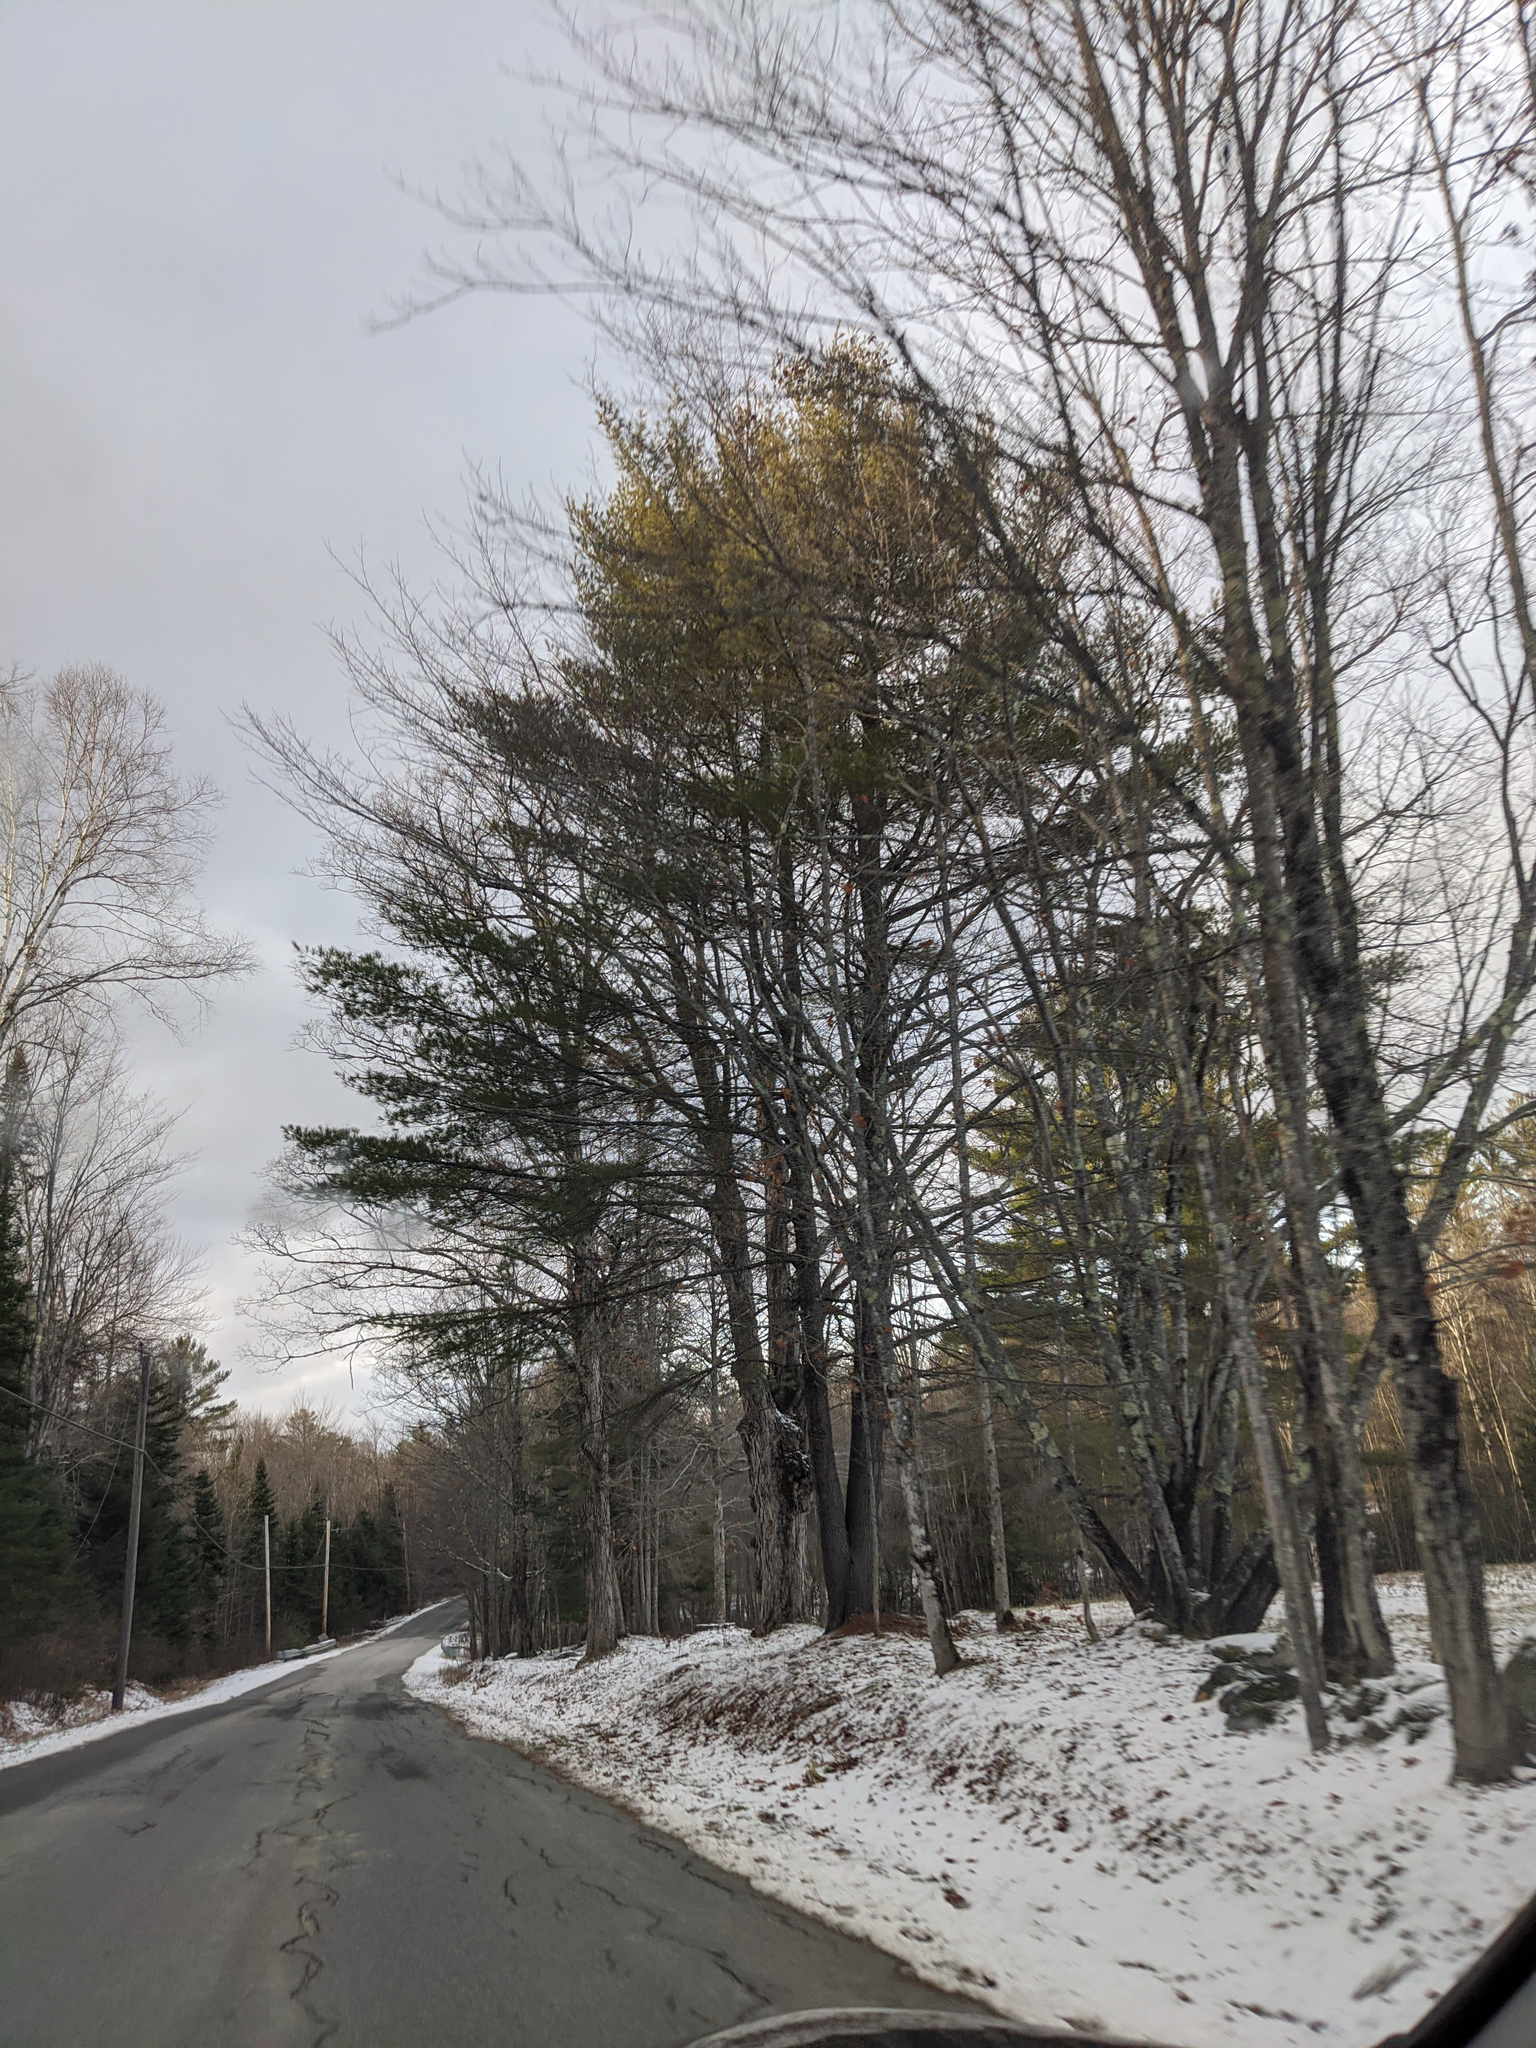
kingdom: Plantae
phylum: Tracheophyta
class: Pinopsida
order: Pinales
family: Pinaceae
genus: Pinus
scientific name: Pinus strobus
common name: Weymouth pine
